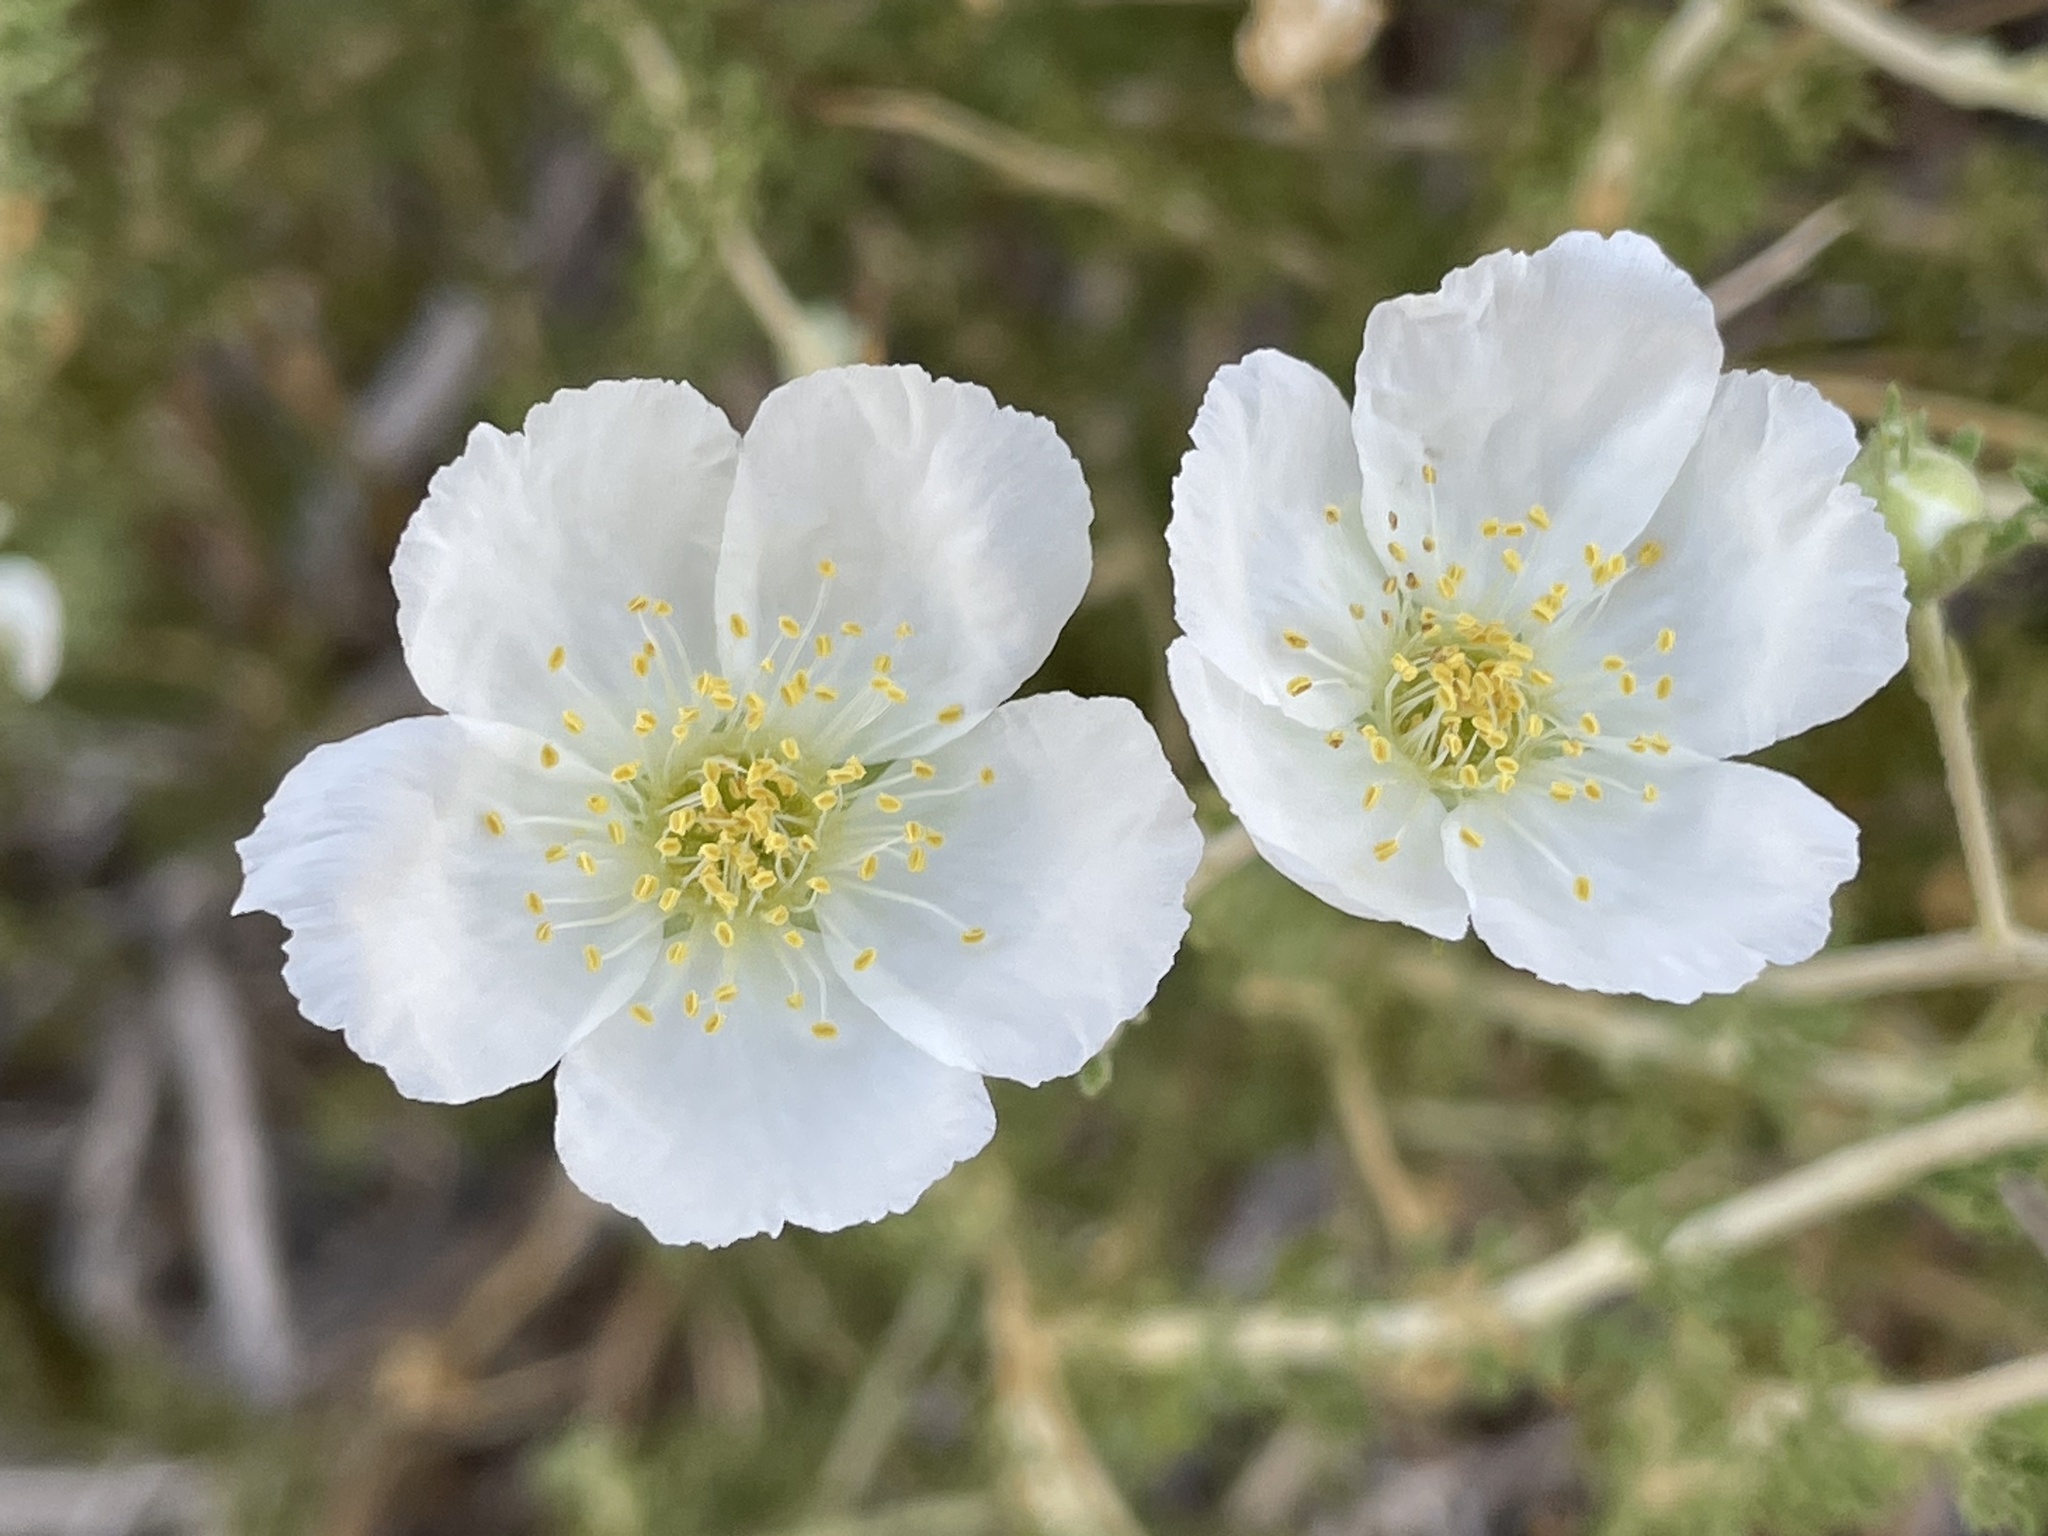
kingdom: Plantae
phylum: Tracheophyta
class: Magnoliopsida
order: Rosales
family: Rosaceae
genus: Fallugia
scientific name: Fallugia paradoxa
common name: Apache-plume
